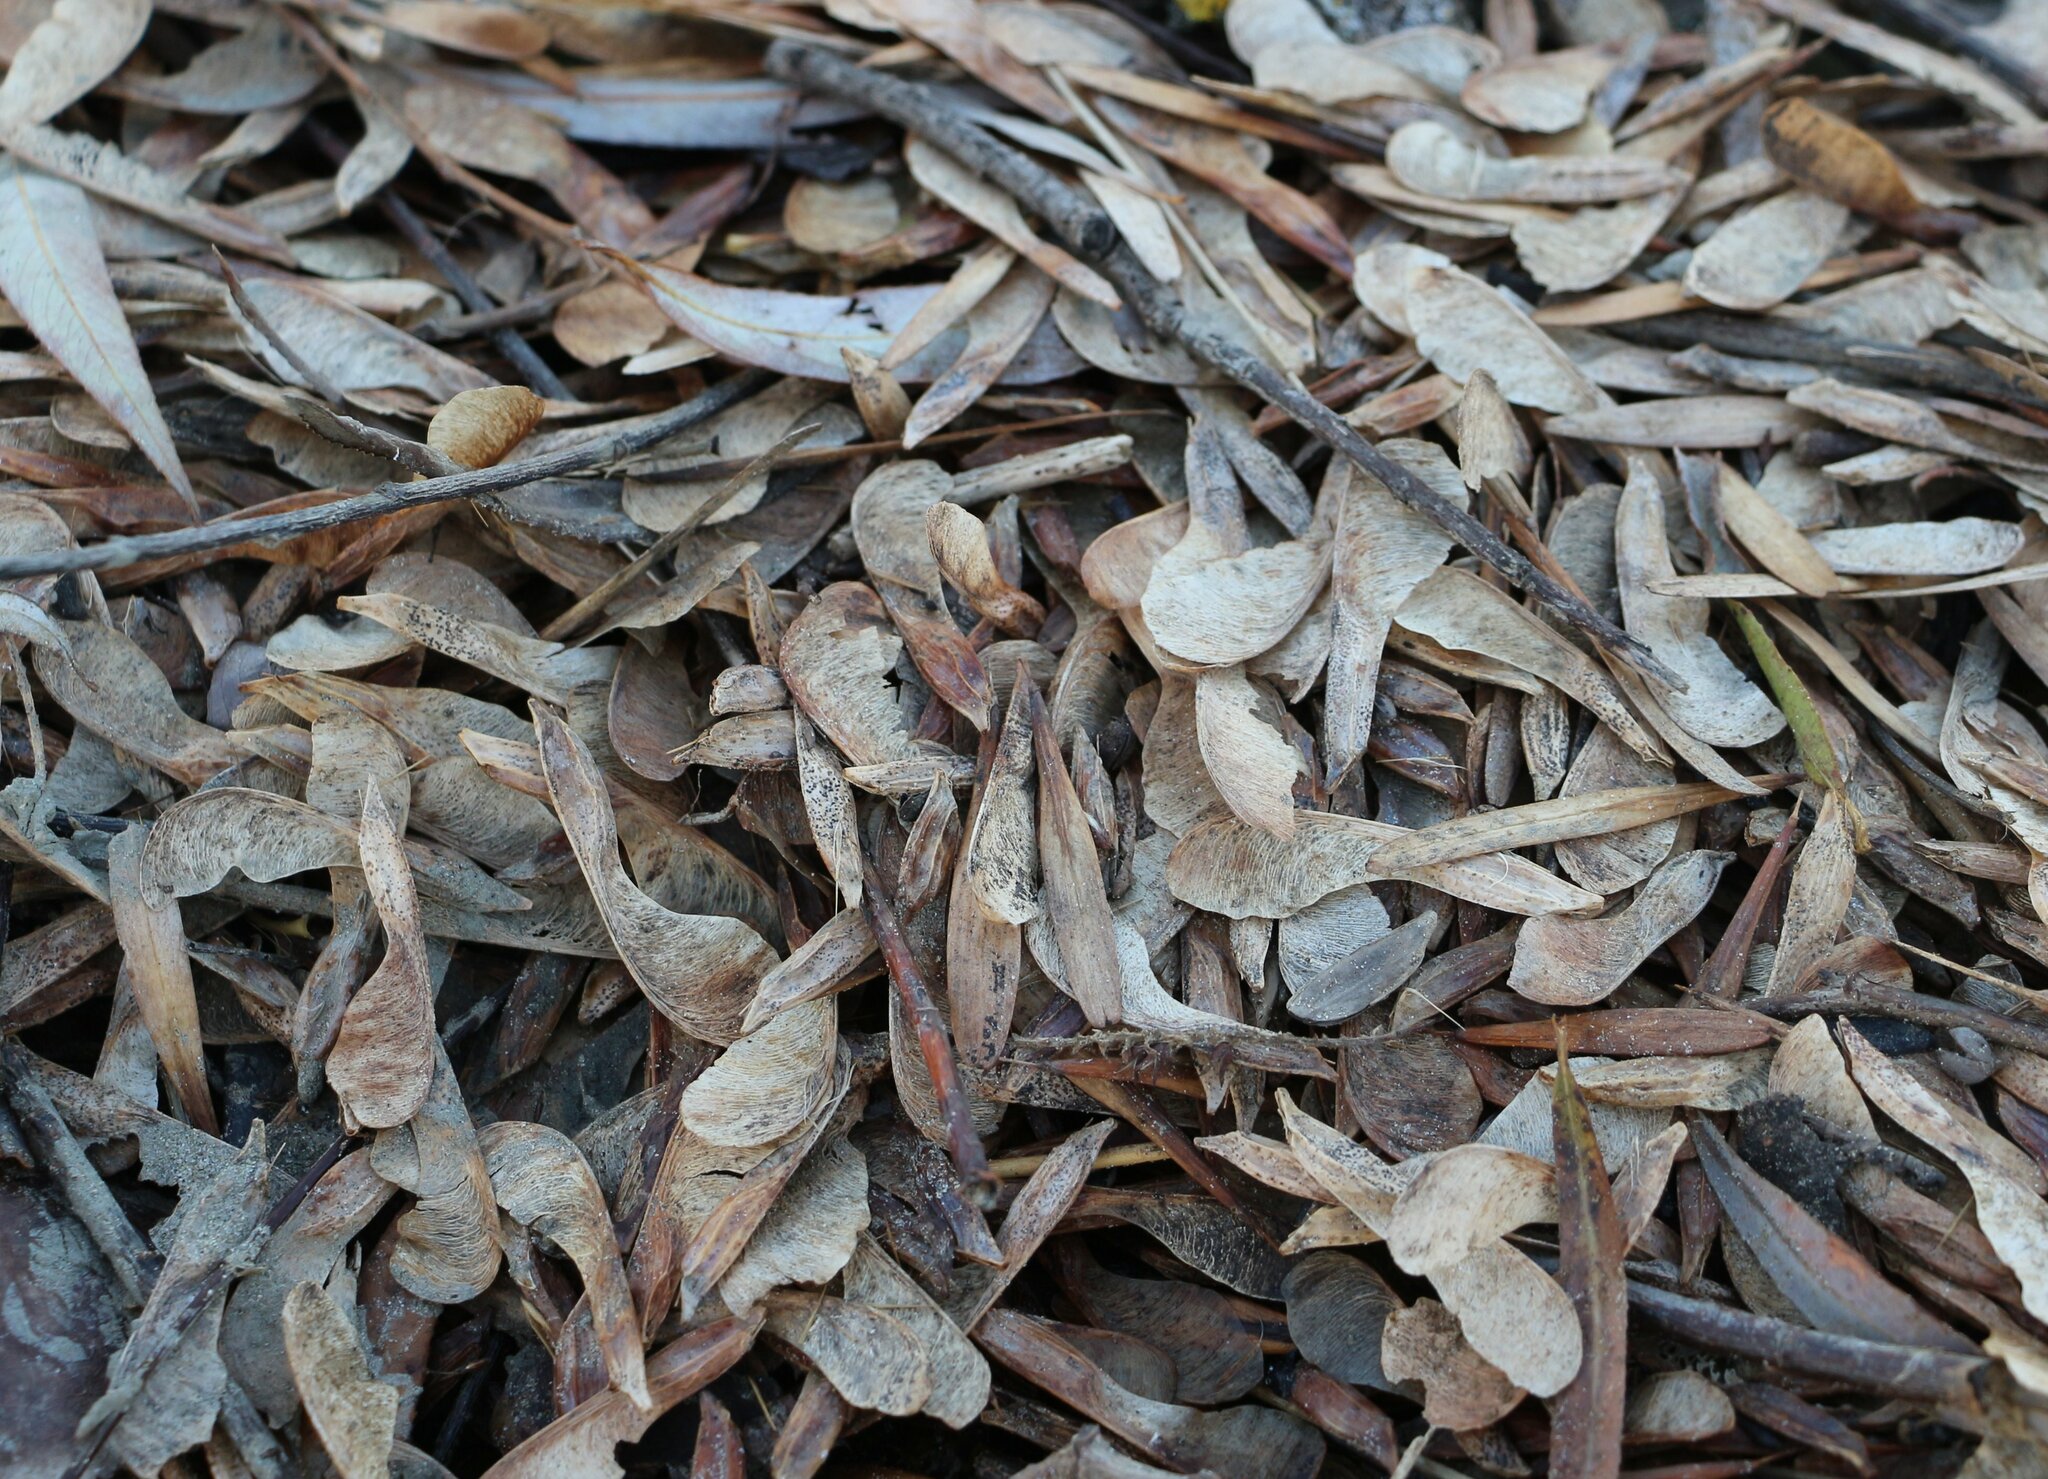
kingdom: Plantae
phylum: Tracheophyta
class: Magnoliopsida
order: Lamiales
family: Oleaceae
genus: Fraxinus
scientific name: Fraxinus pennsylvanica
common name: Green ash
